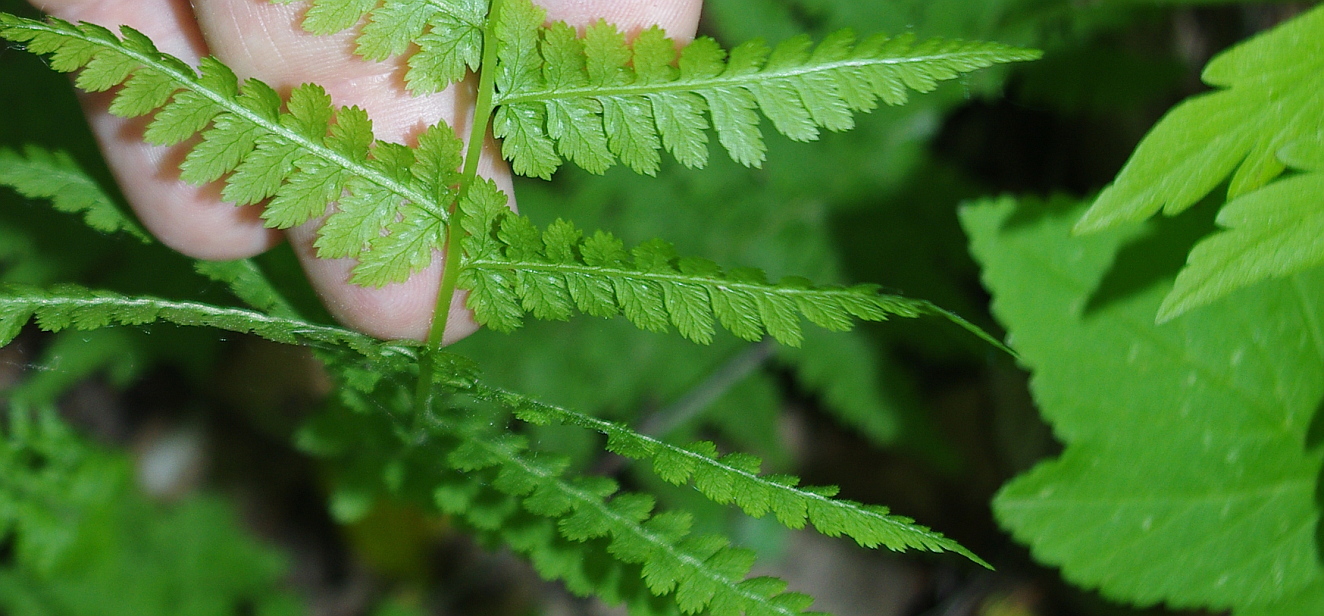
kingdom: Plantae
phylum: Tracheophyta
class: Polypodiopsida
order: Polypodiales
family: Athyriaceae
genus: Athyrium
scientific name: Athyrium filix-femina
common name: Lady fern
